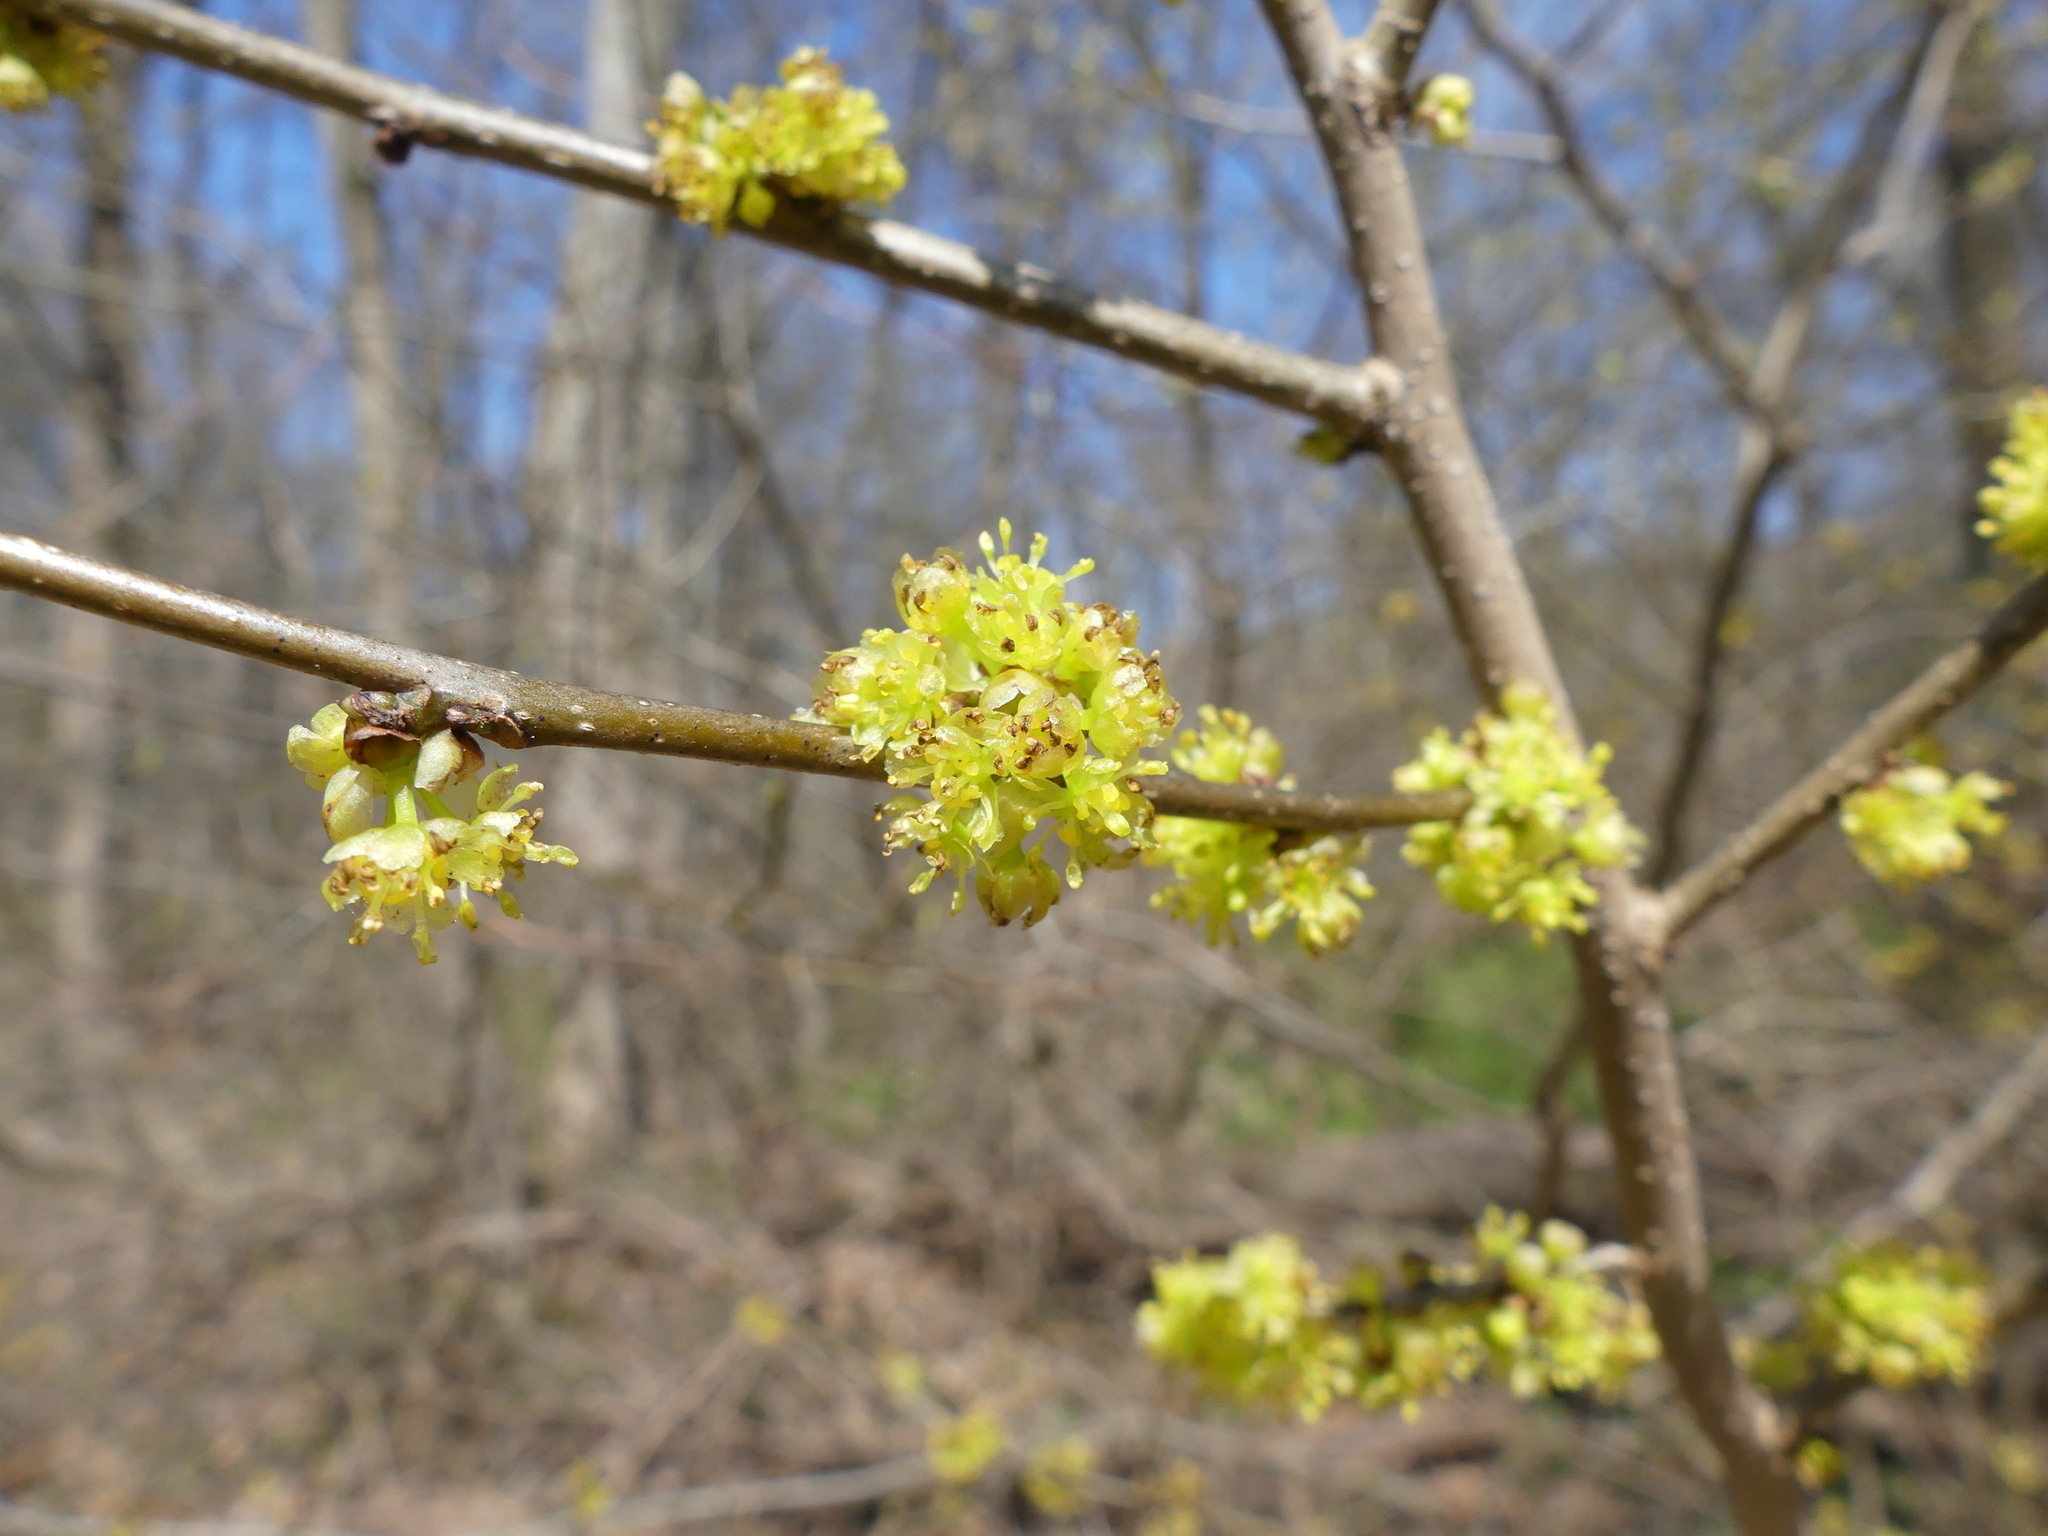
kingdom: Plantae
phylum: Tracheophyta
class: Magnoliopsida
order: Laurales
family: Lauraceae
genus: Lindera
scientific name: Lindera benzoin
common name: Spicebush
